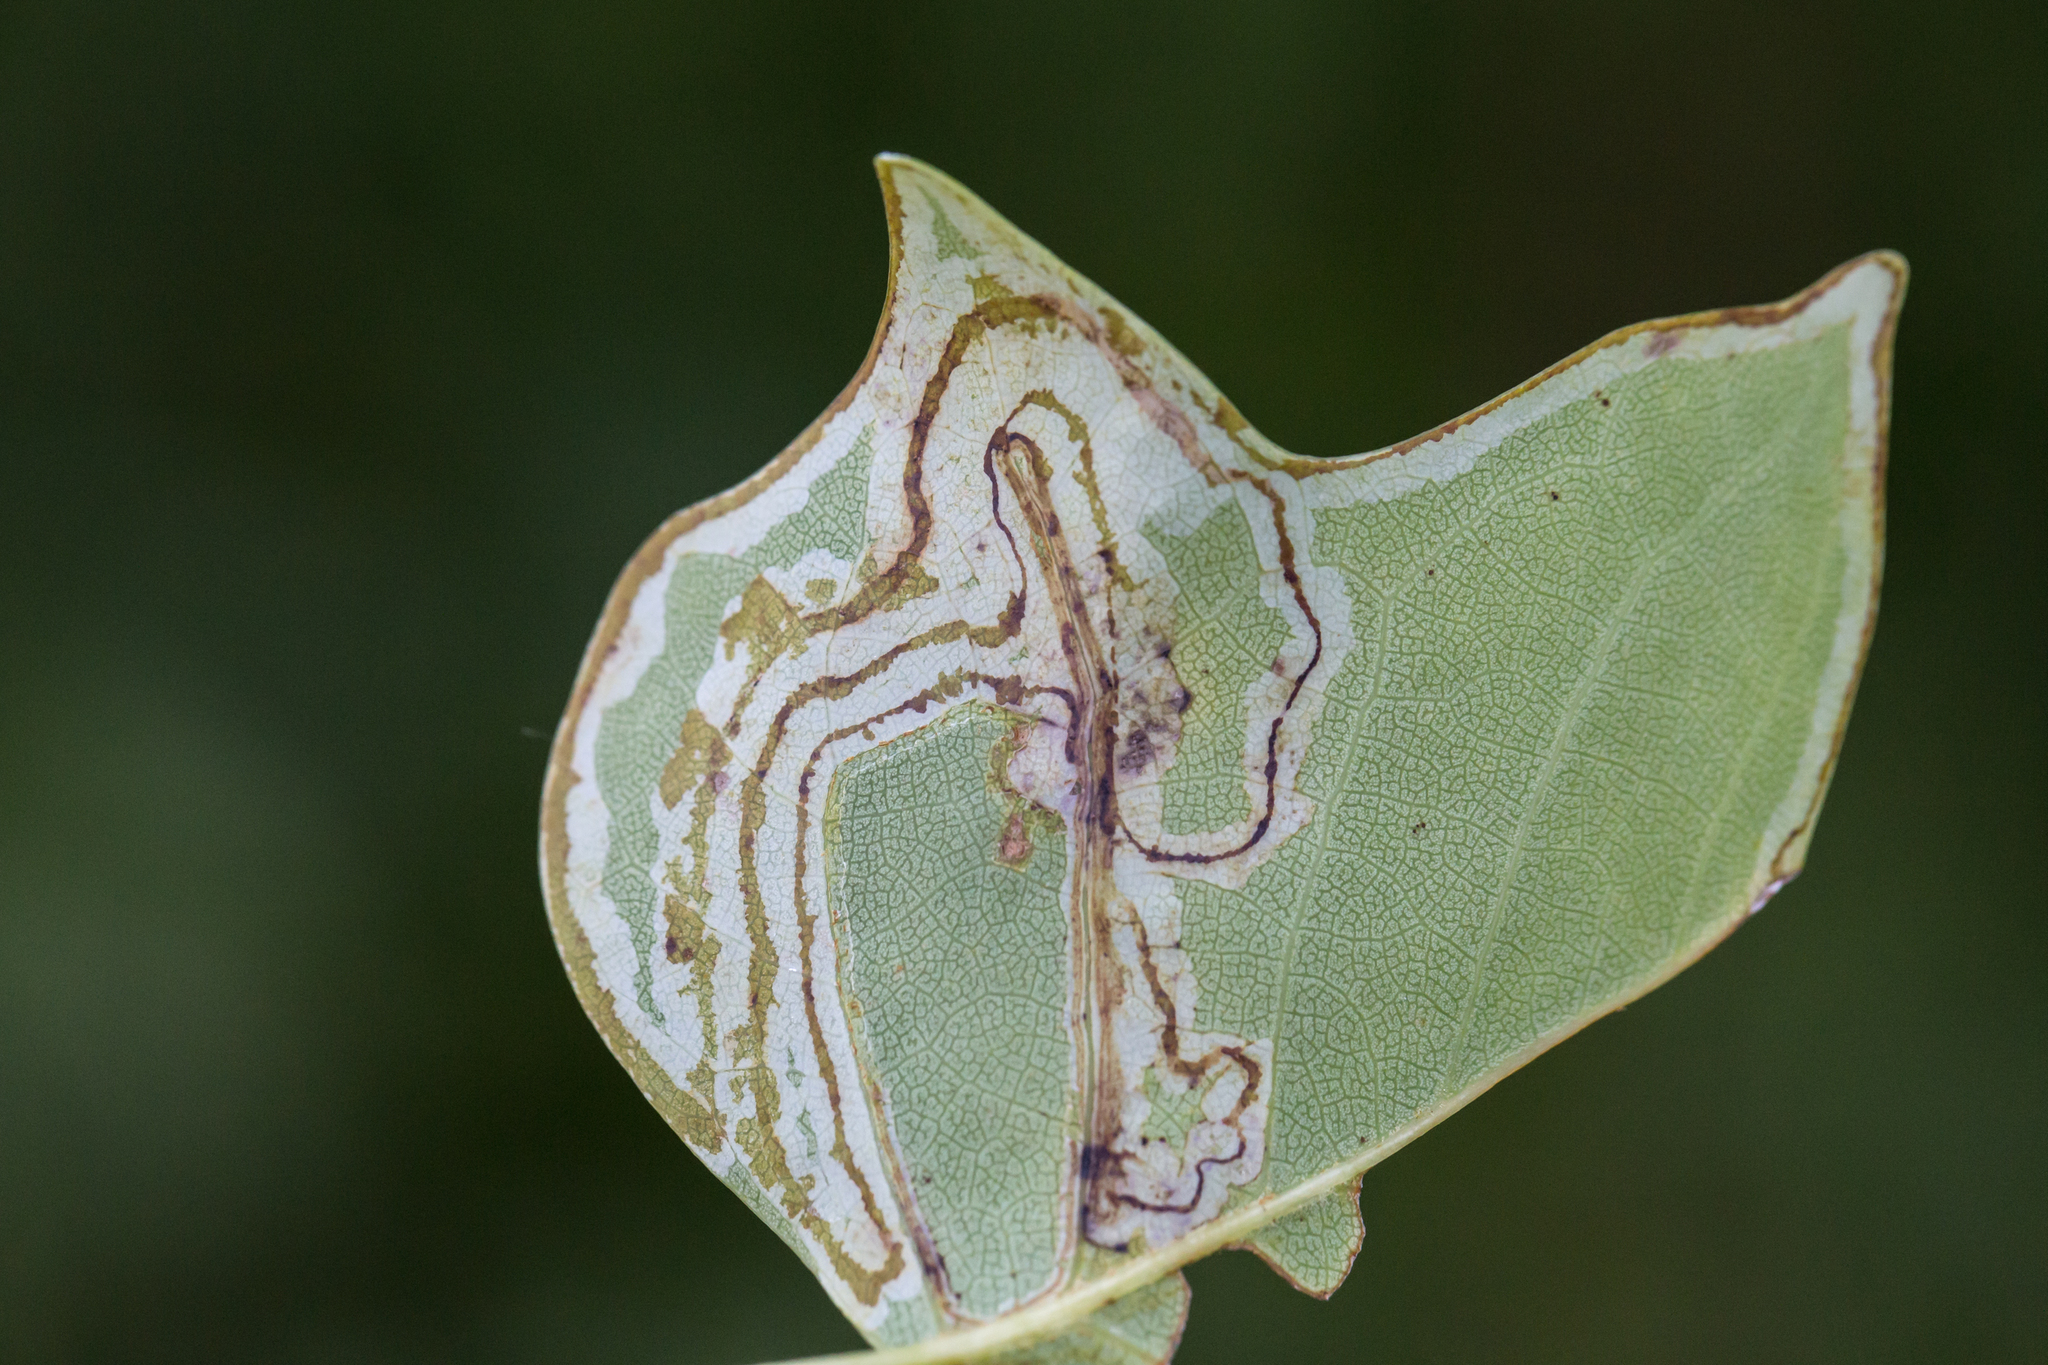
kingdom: Animalia
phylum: Arthropoda
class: Insecta
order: Lepidoptera
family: Gracillariidae
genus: Phyllocnistis
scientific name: Phyllocnistis liriodendronella
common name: Tulip tree leaf miner
